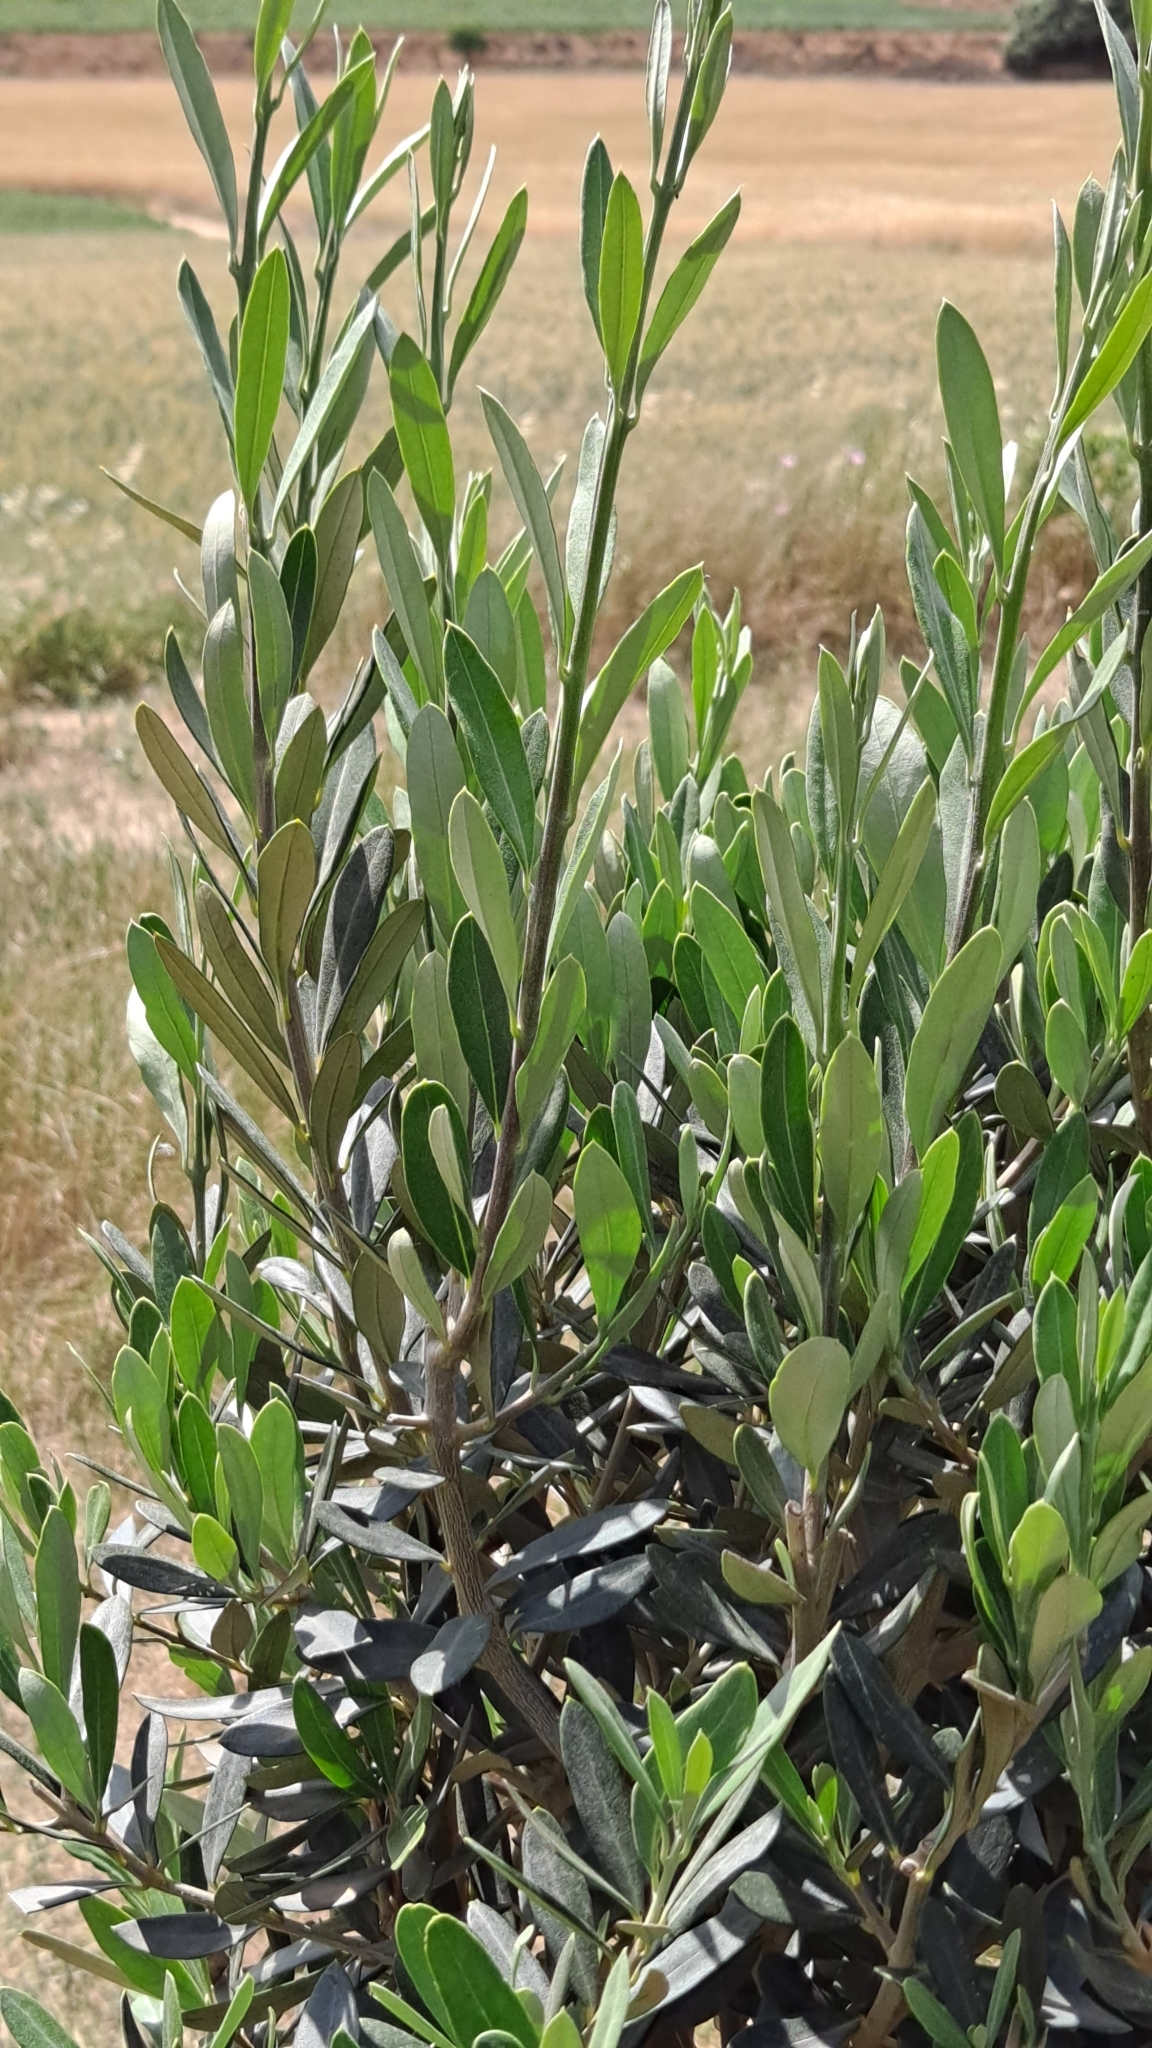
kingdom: Plantae
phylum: Tracheophyta
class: Magnoliopsida
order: Lamiales
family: Oleaceae
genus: Olea
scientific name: Olea europaea
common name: Olive
